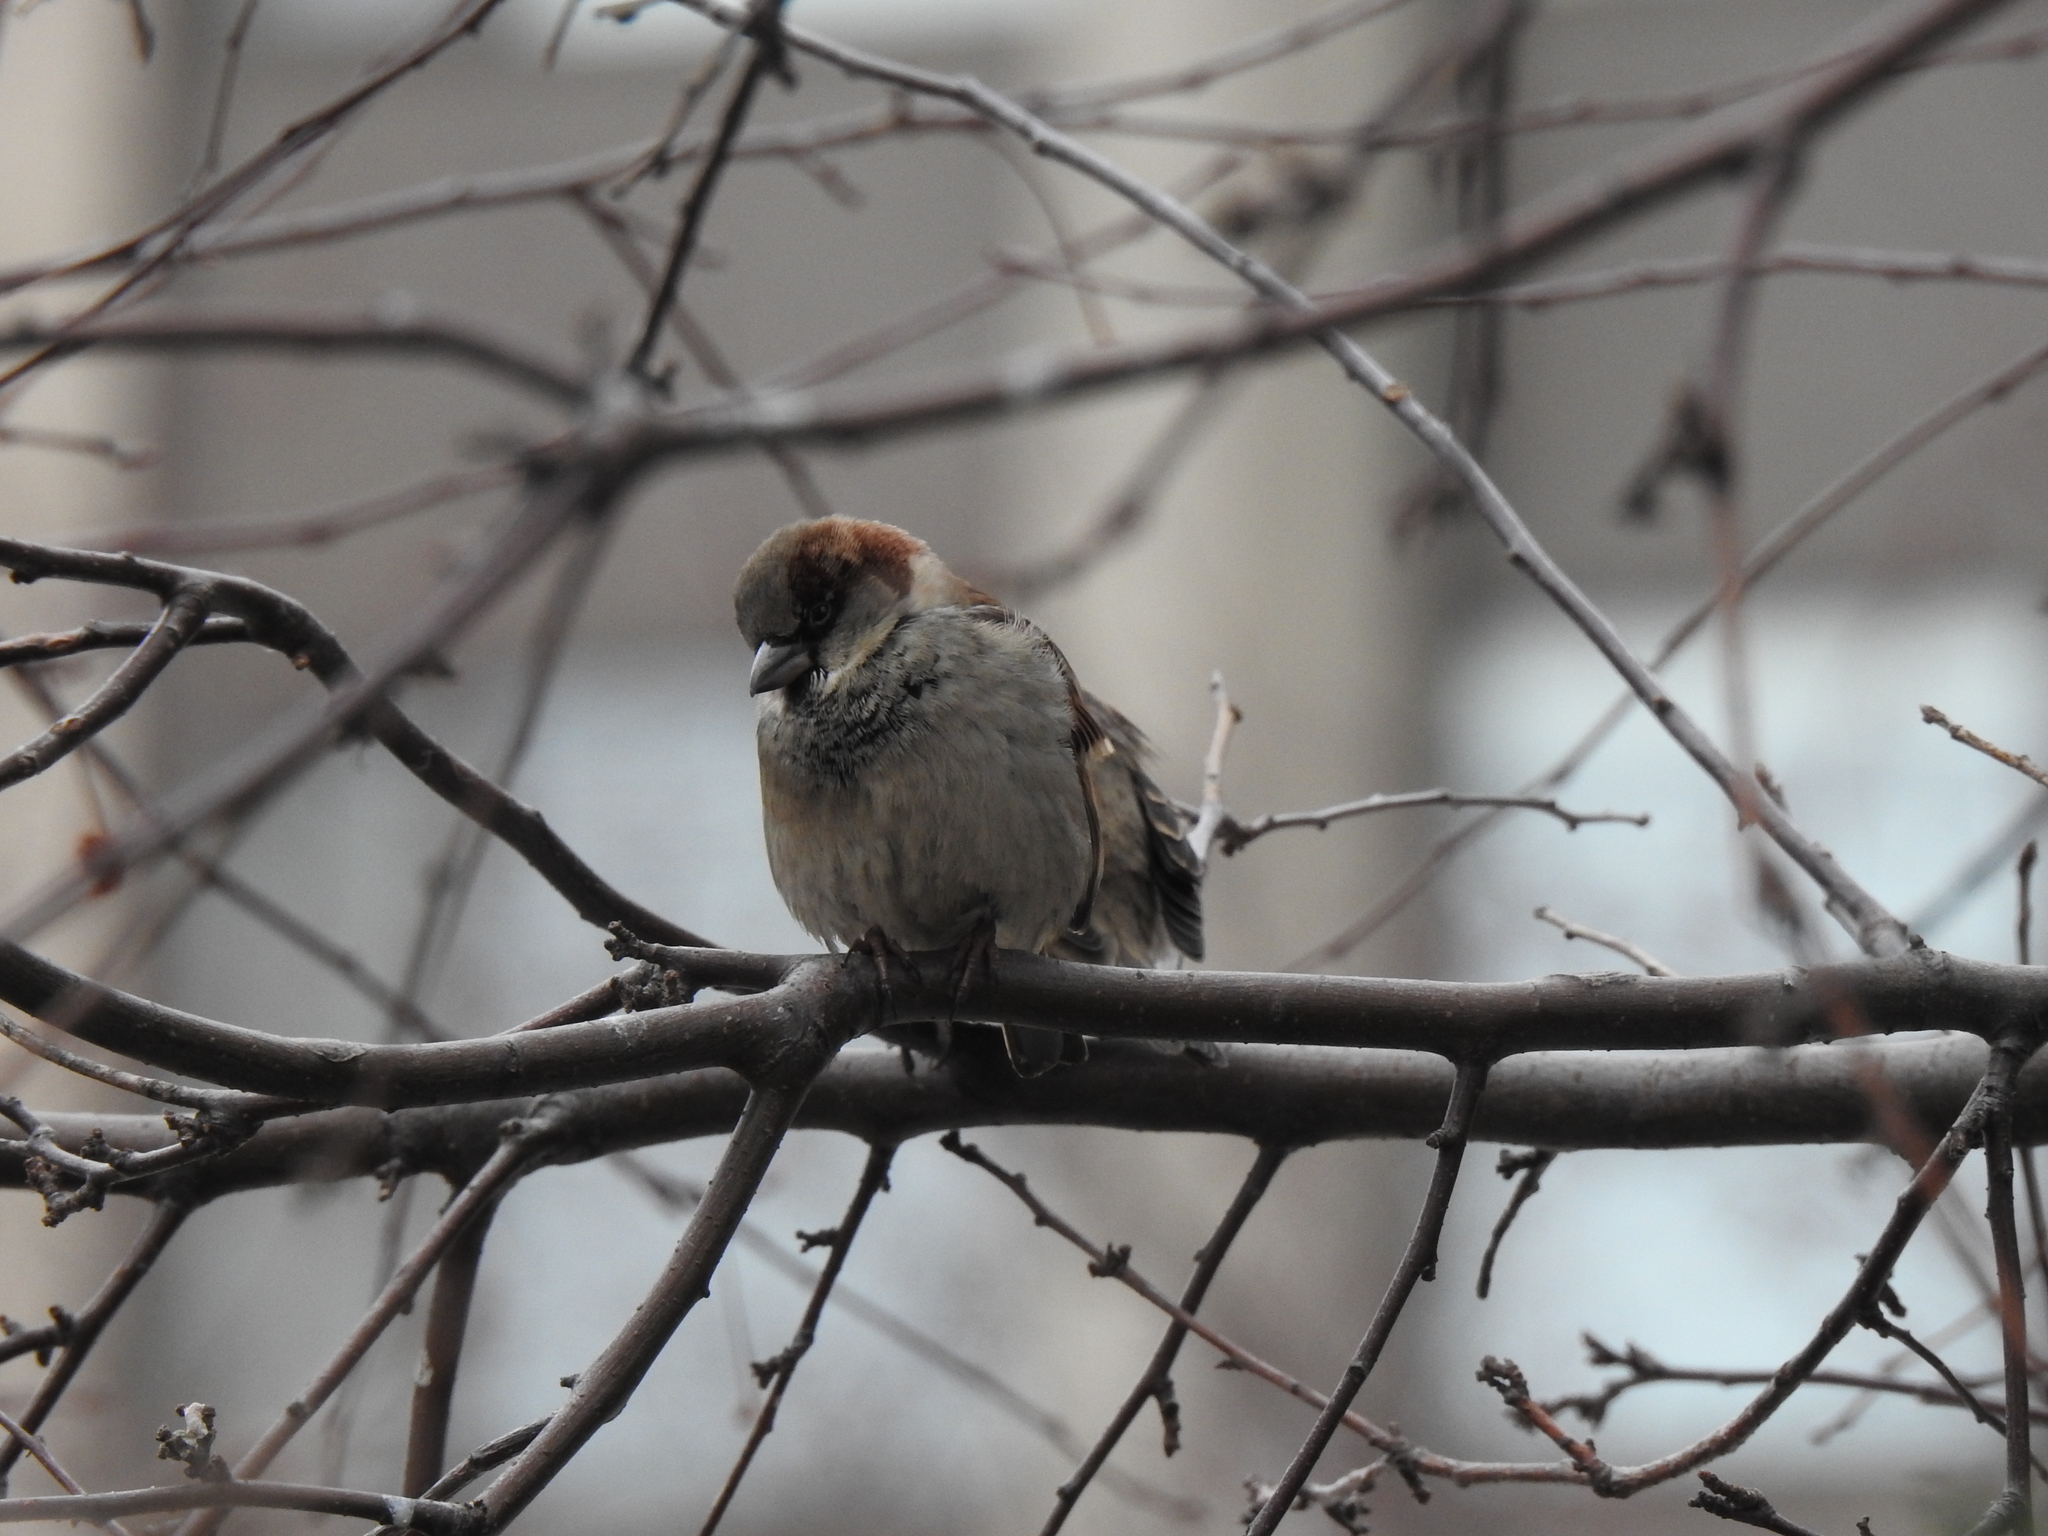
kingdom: Animalia
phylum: Chordata
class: Aves
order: Passeriformes
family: Passeridae
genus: Passer
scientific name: Passer domesticus
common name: House sparrow
